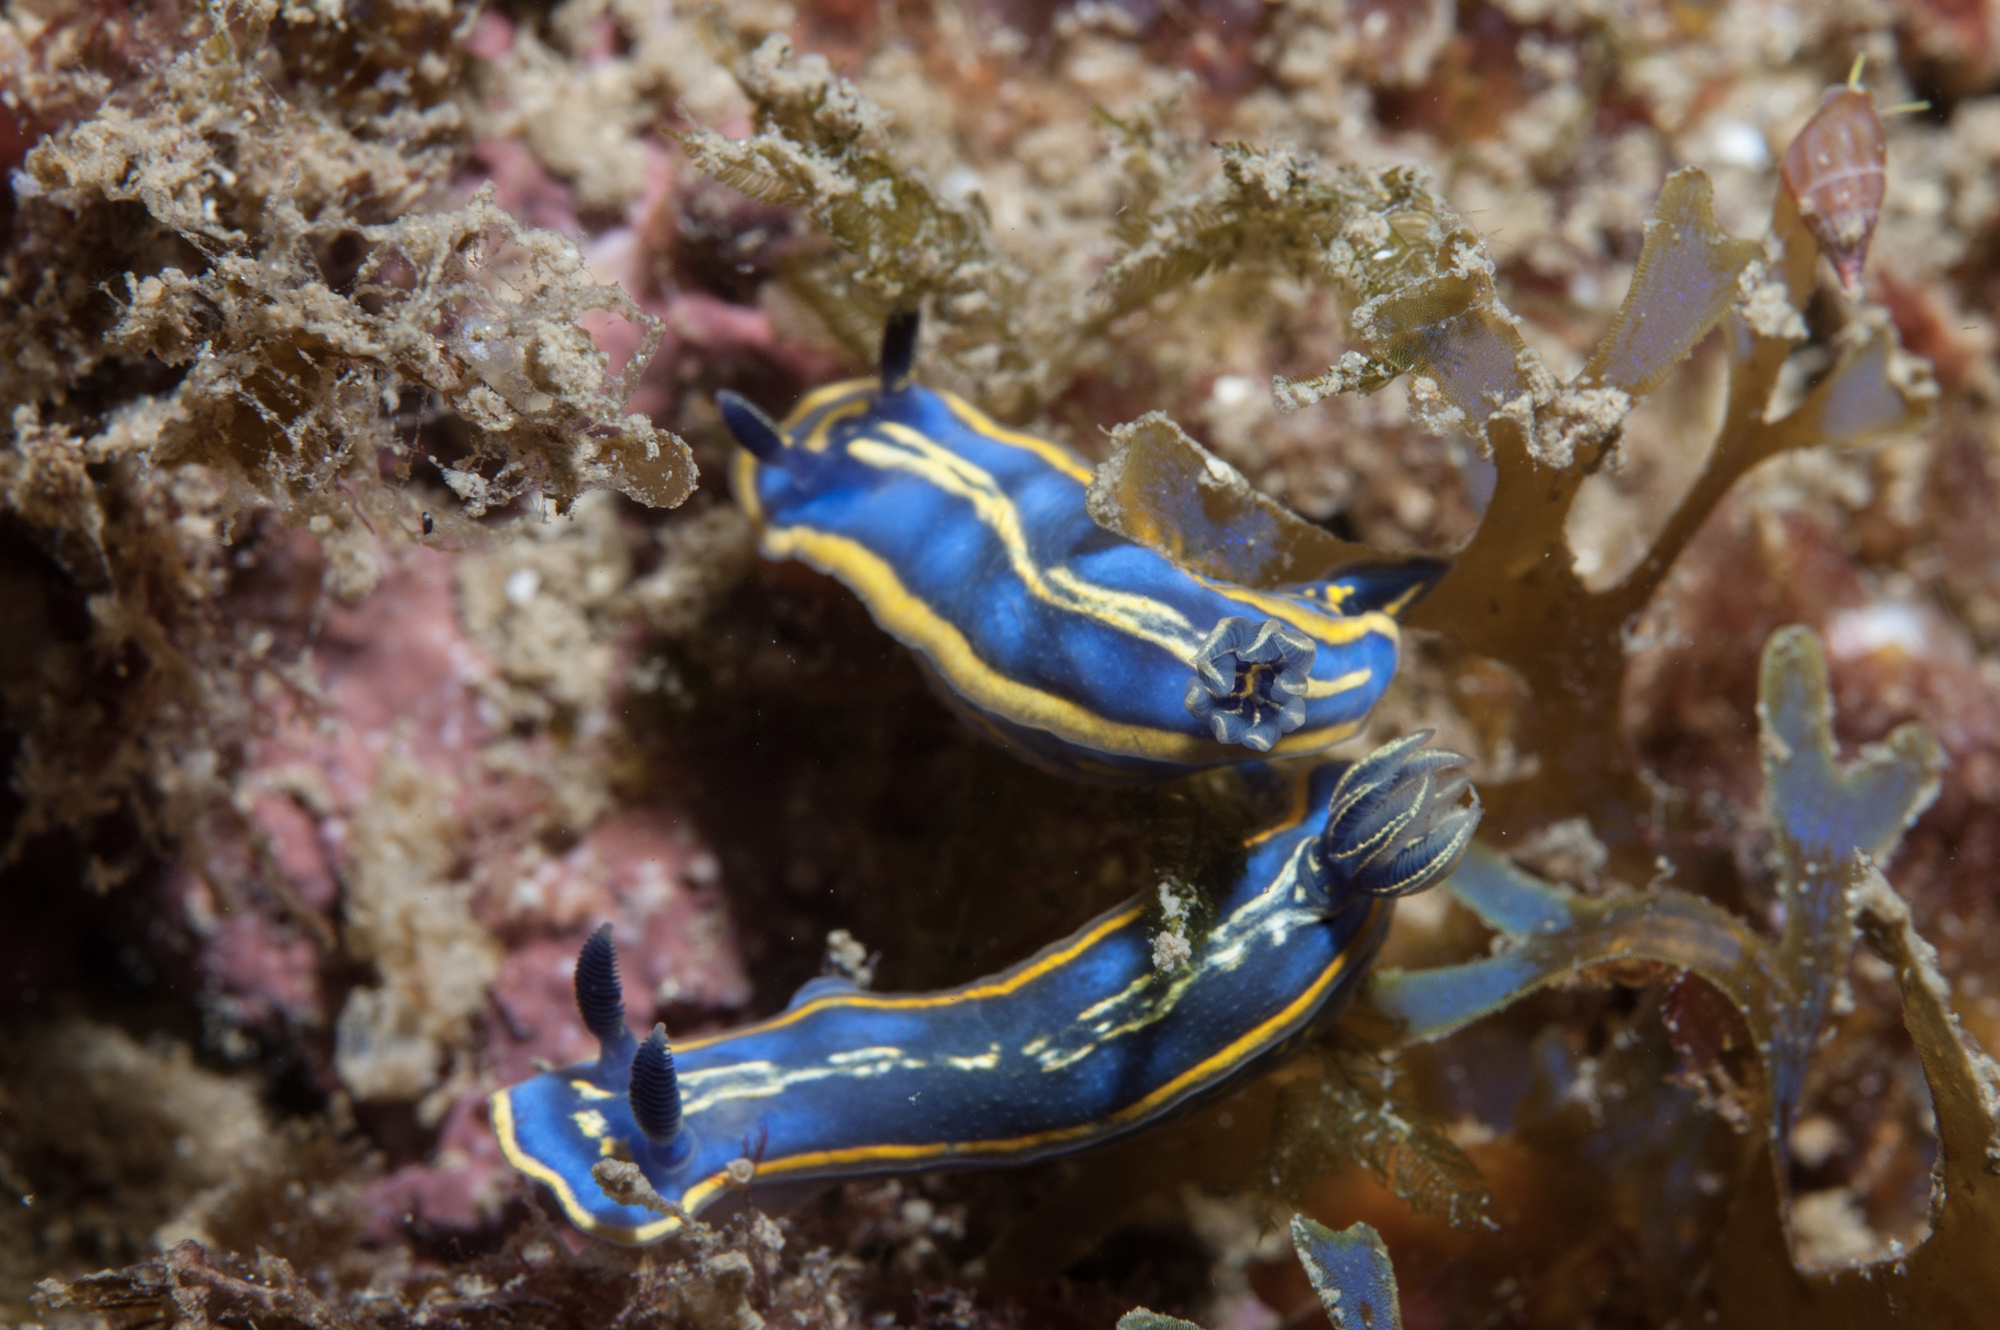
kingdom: Animalia
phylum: Mollusca
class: Gastropoda
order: Nudibranchia
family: Chromodorididae
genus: Felimare
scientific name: Felimare bilineata
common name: Double-lined sea slug
